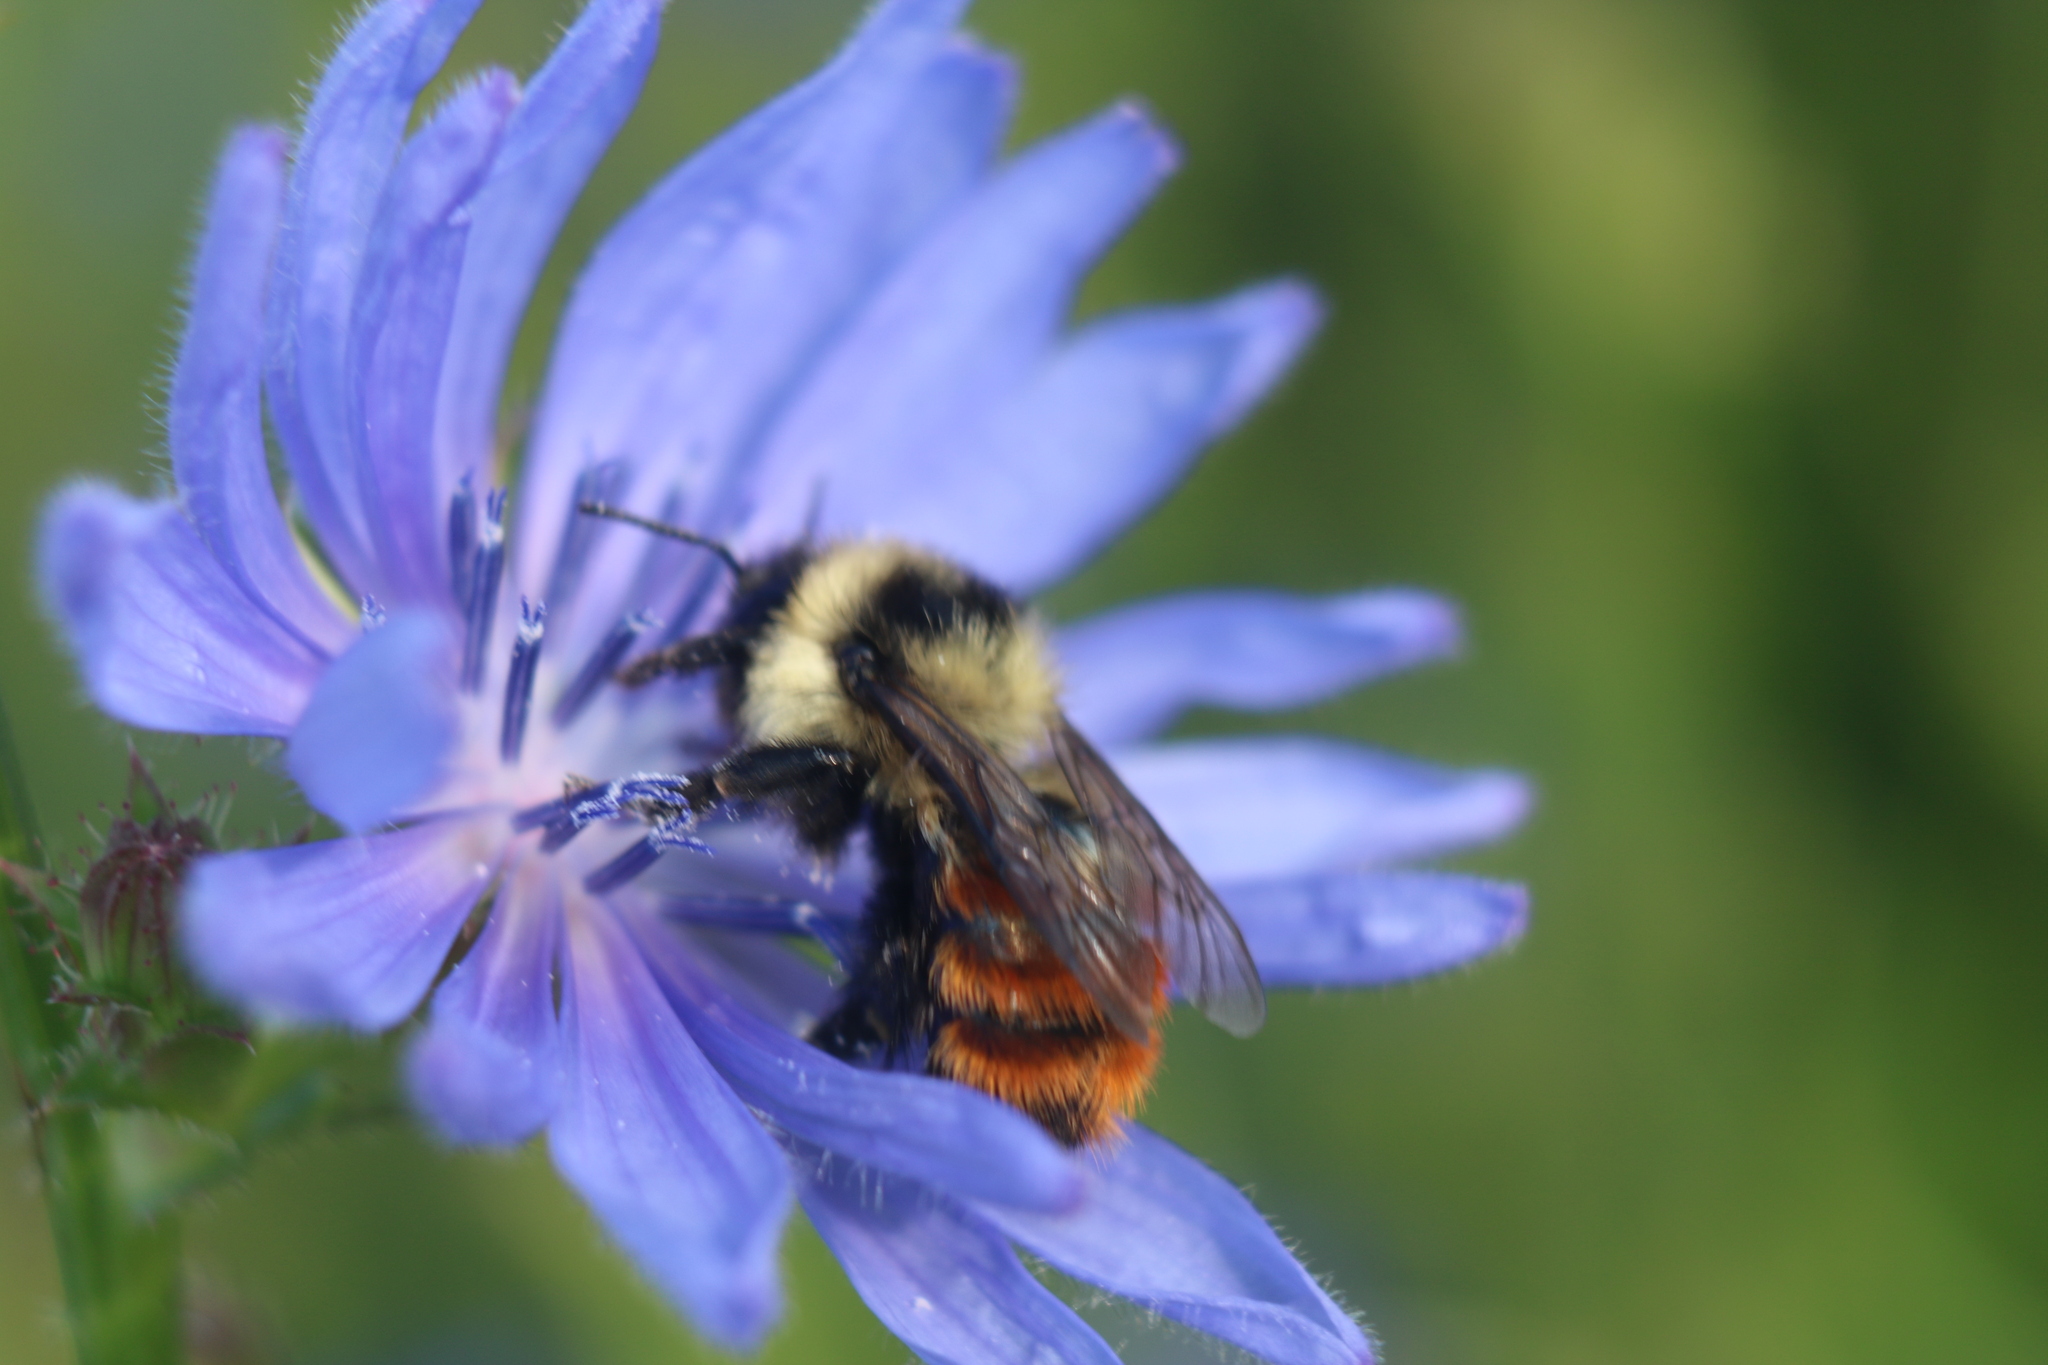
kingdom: Animalia
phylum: Arthropoda
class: Insecta
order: Hymenoptera
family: Apidae
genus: Bombus
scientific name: Bombus rufocinctus
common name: Red-belted bumble bee
